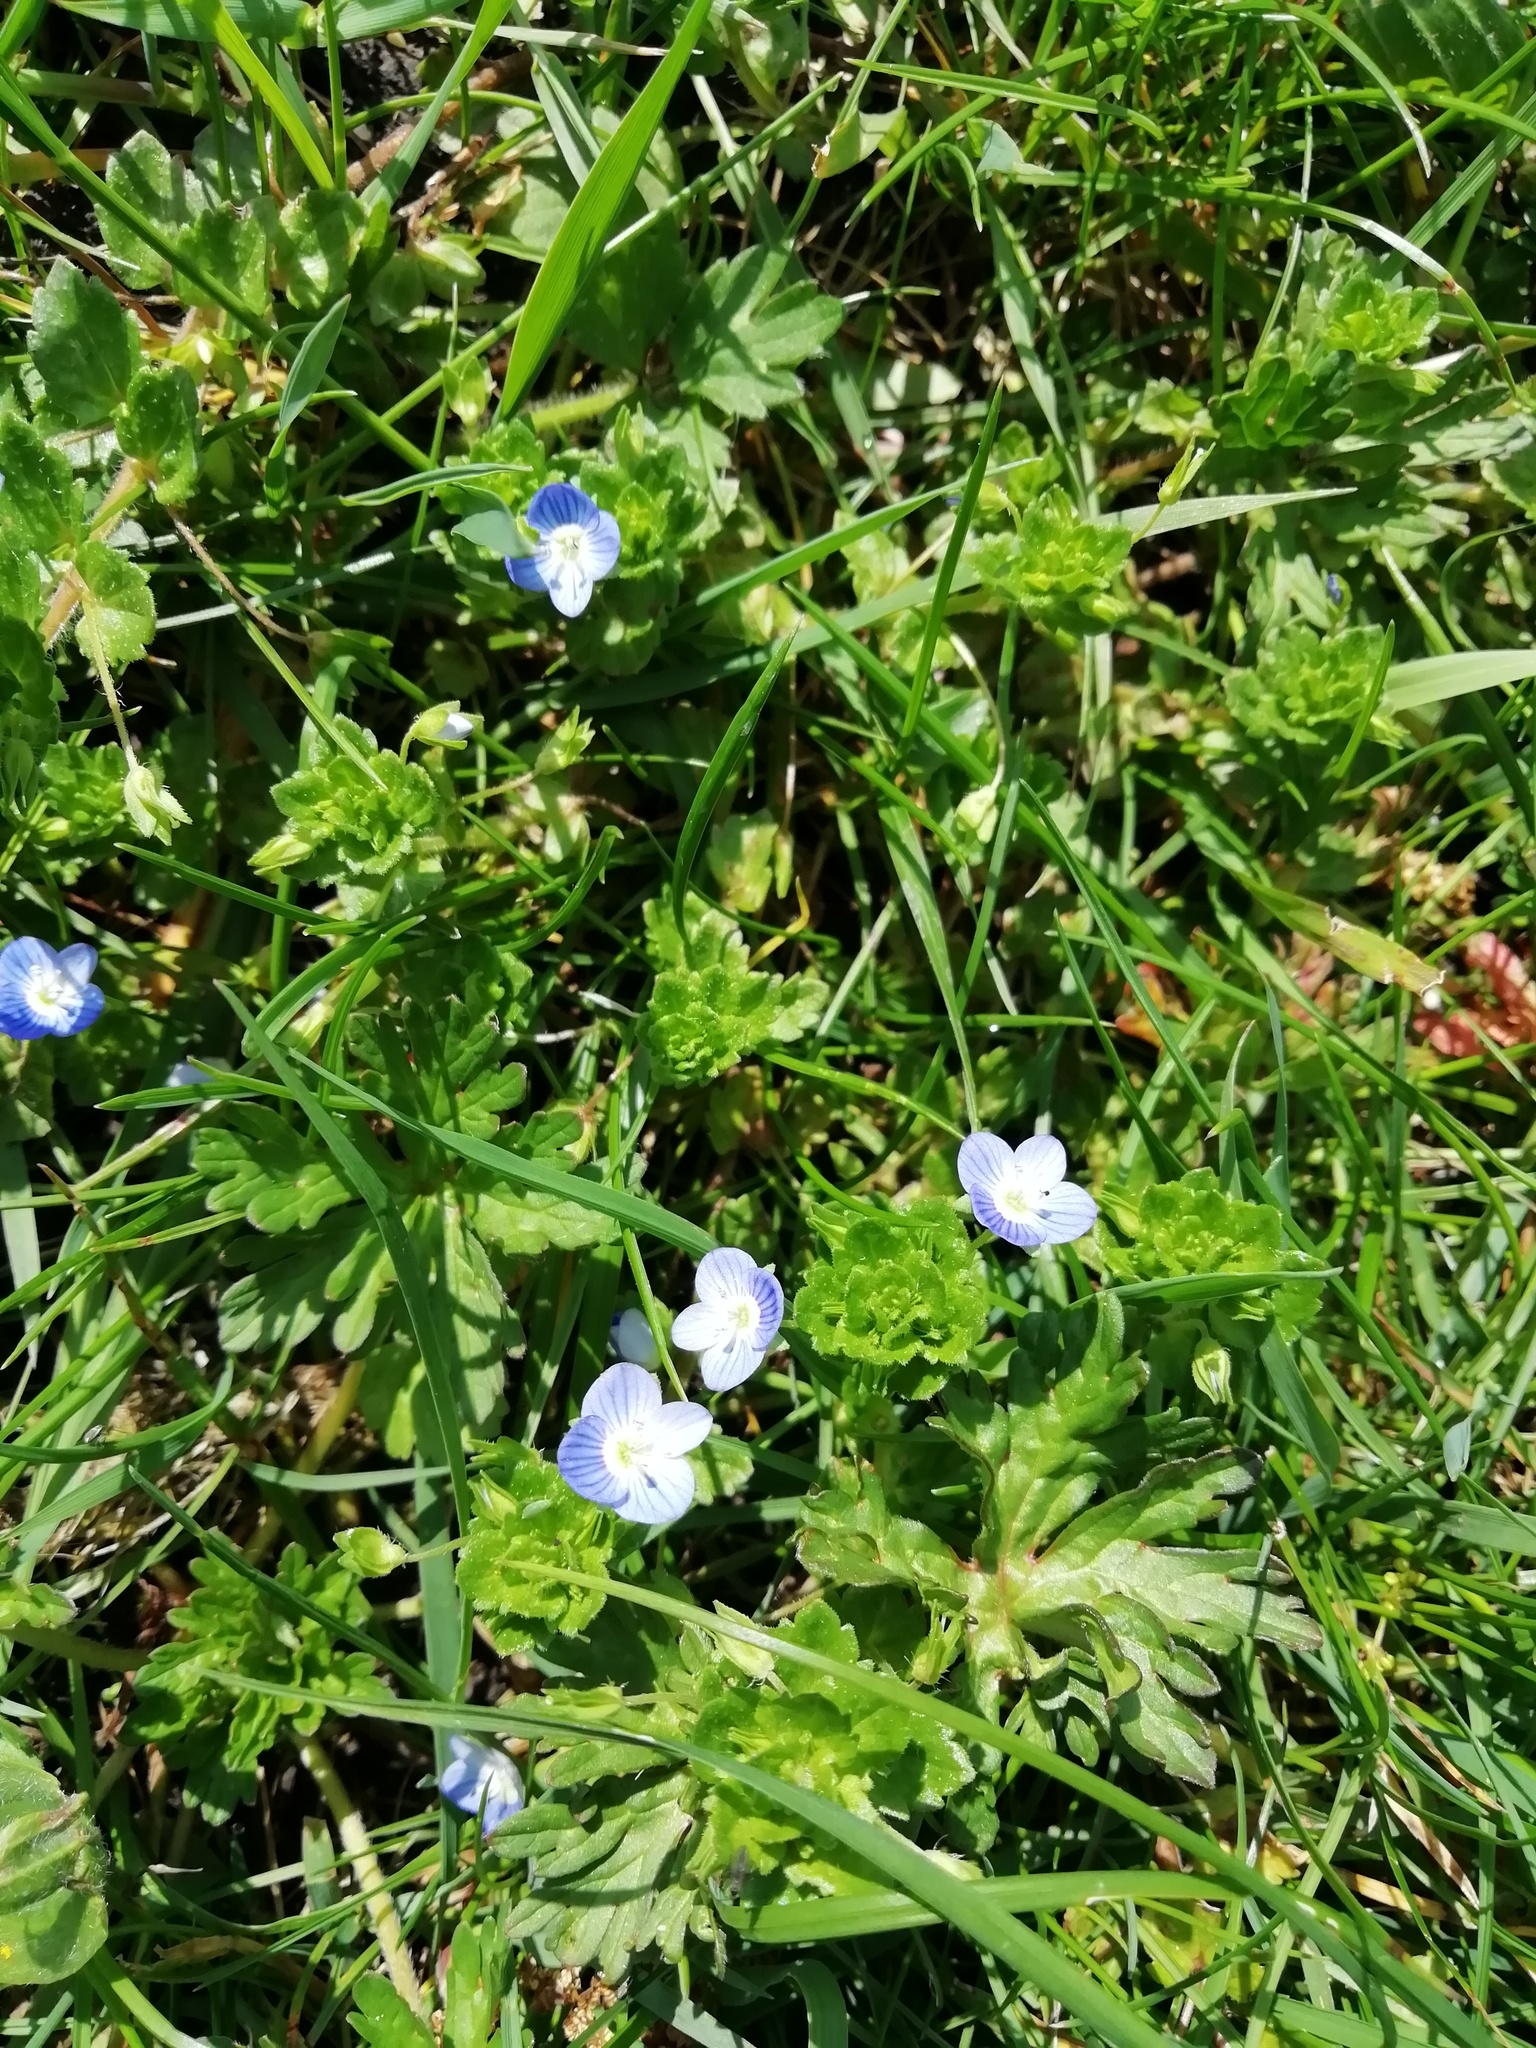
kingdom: Plantae
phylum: Tracheophyta
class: Magnoliopsida
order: Lamiales
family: Plantaginaceae
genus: Veronica
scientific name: Veronica persica
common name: Common field-speedwell
